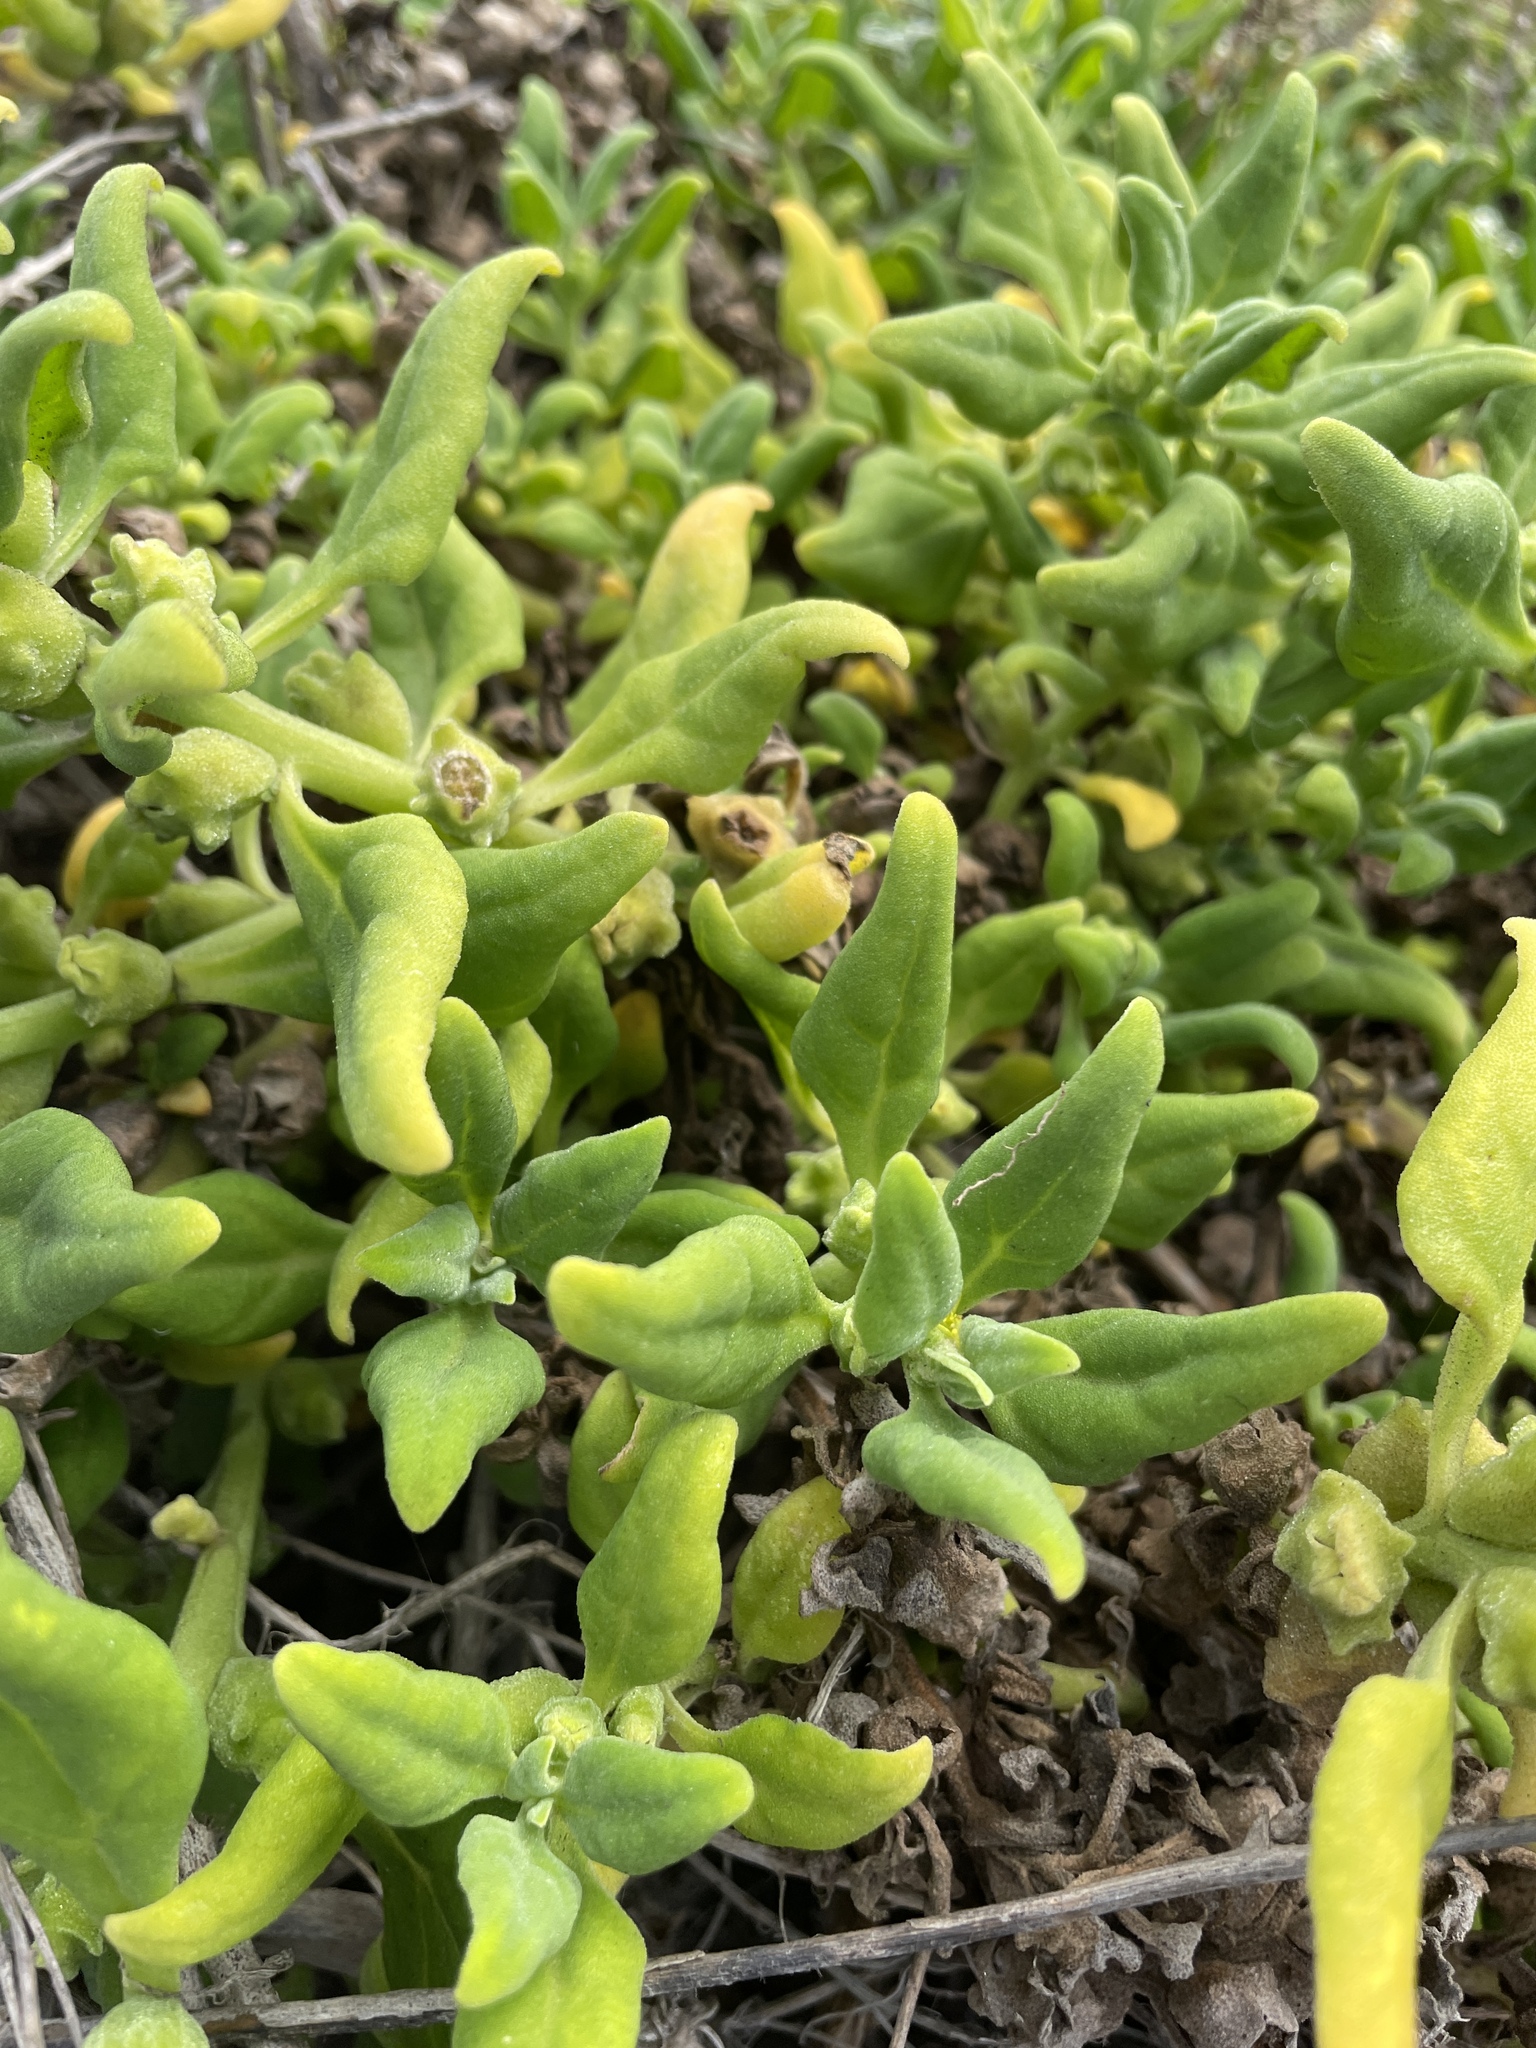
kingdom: Plantae
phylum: Tracheophyta
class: Magnoliopsida
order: Caryophyllales
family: Aizoaceae
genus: Tetragonia
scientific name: Tetragonia tetragonoides
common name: New zealand-spinach
